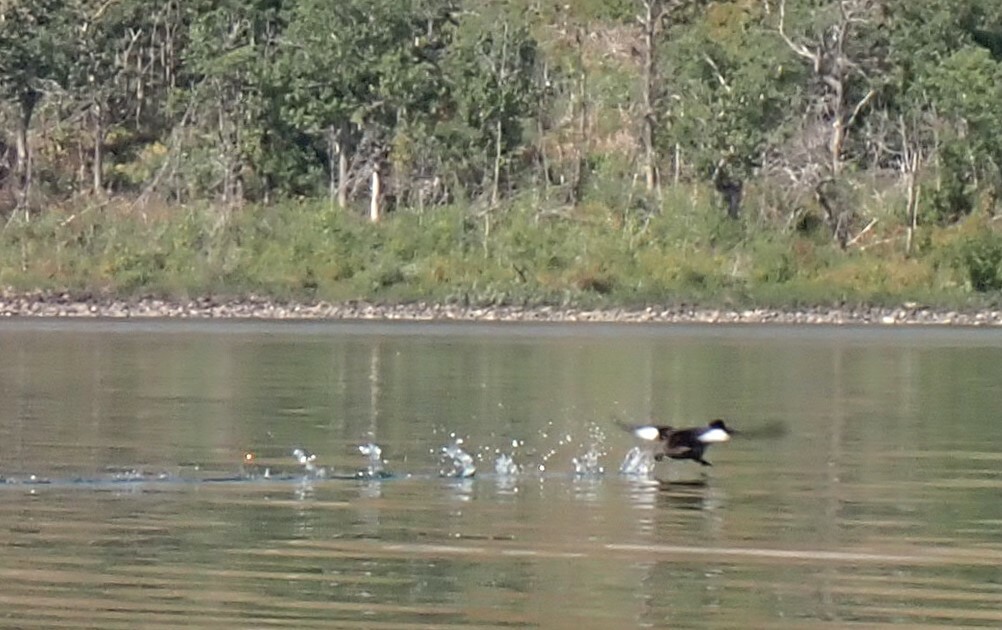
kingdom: Animalia
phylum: Chordata
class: Aves
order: Anseriformes
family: Anatidae
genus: Bucephala
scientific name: Bucephala clangula
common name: Common goldeneye
